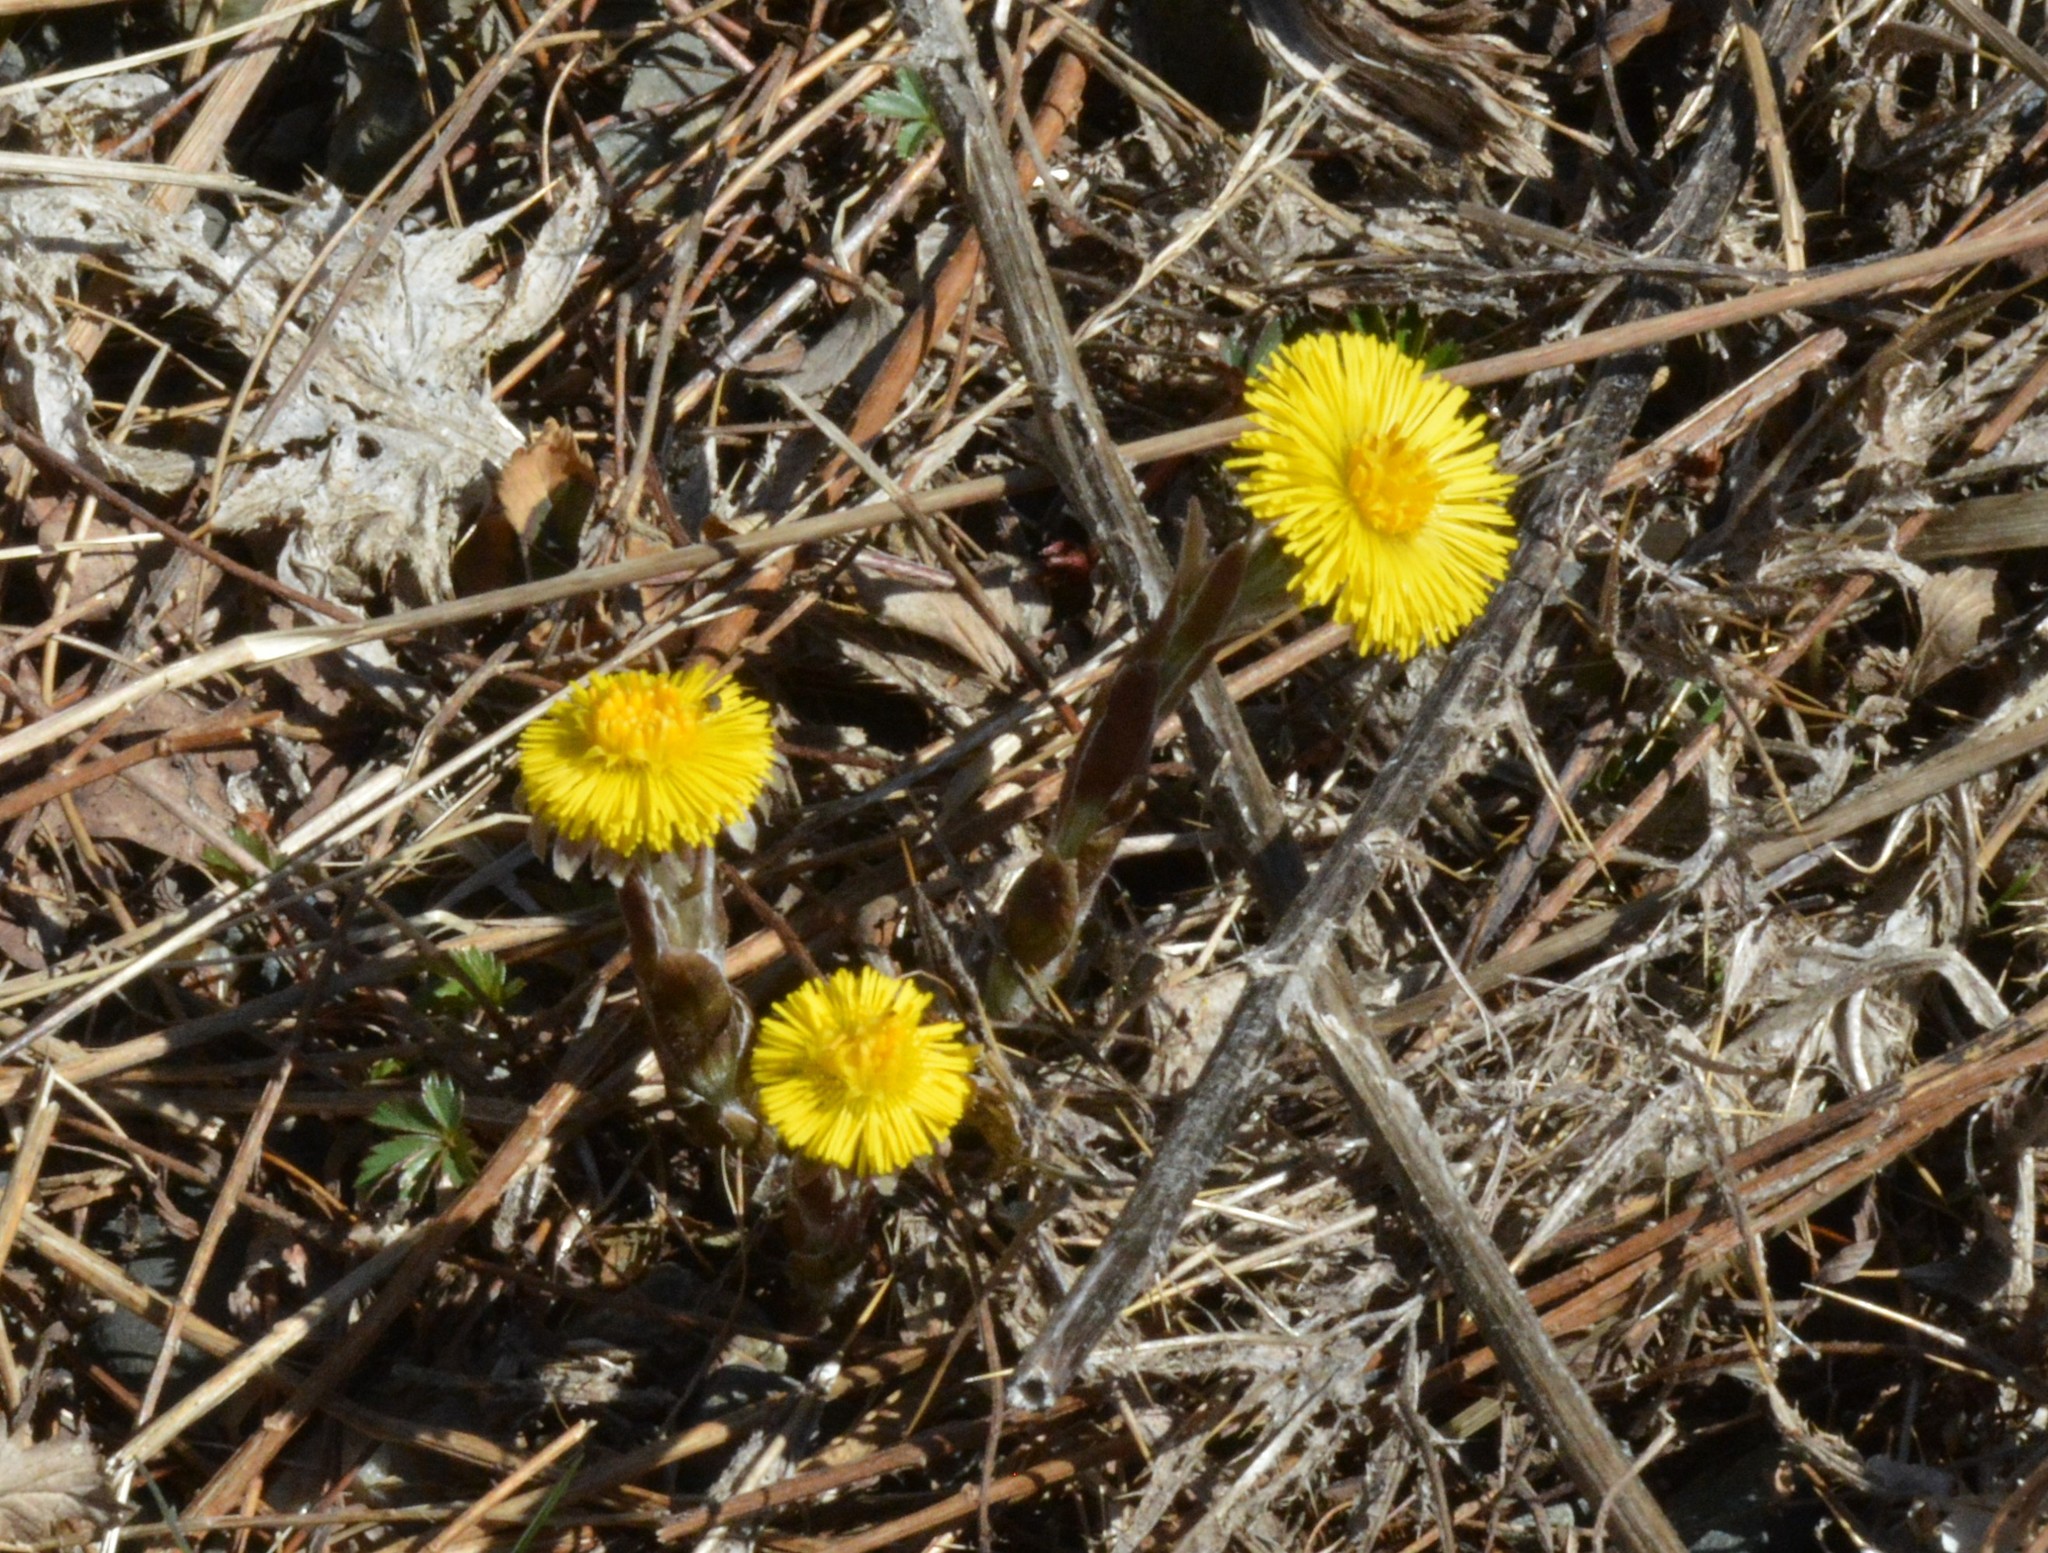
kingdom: Plantae
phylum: Tracheophyta
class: Magnoliopsida
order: Asterales
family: Asteraceae
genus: Tussilago
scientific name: Tussilago farfara
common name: Coltsfoot
